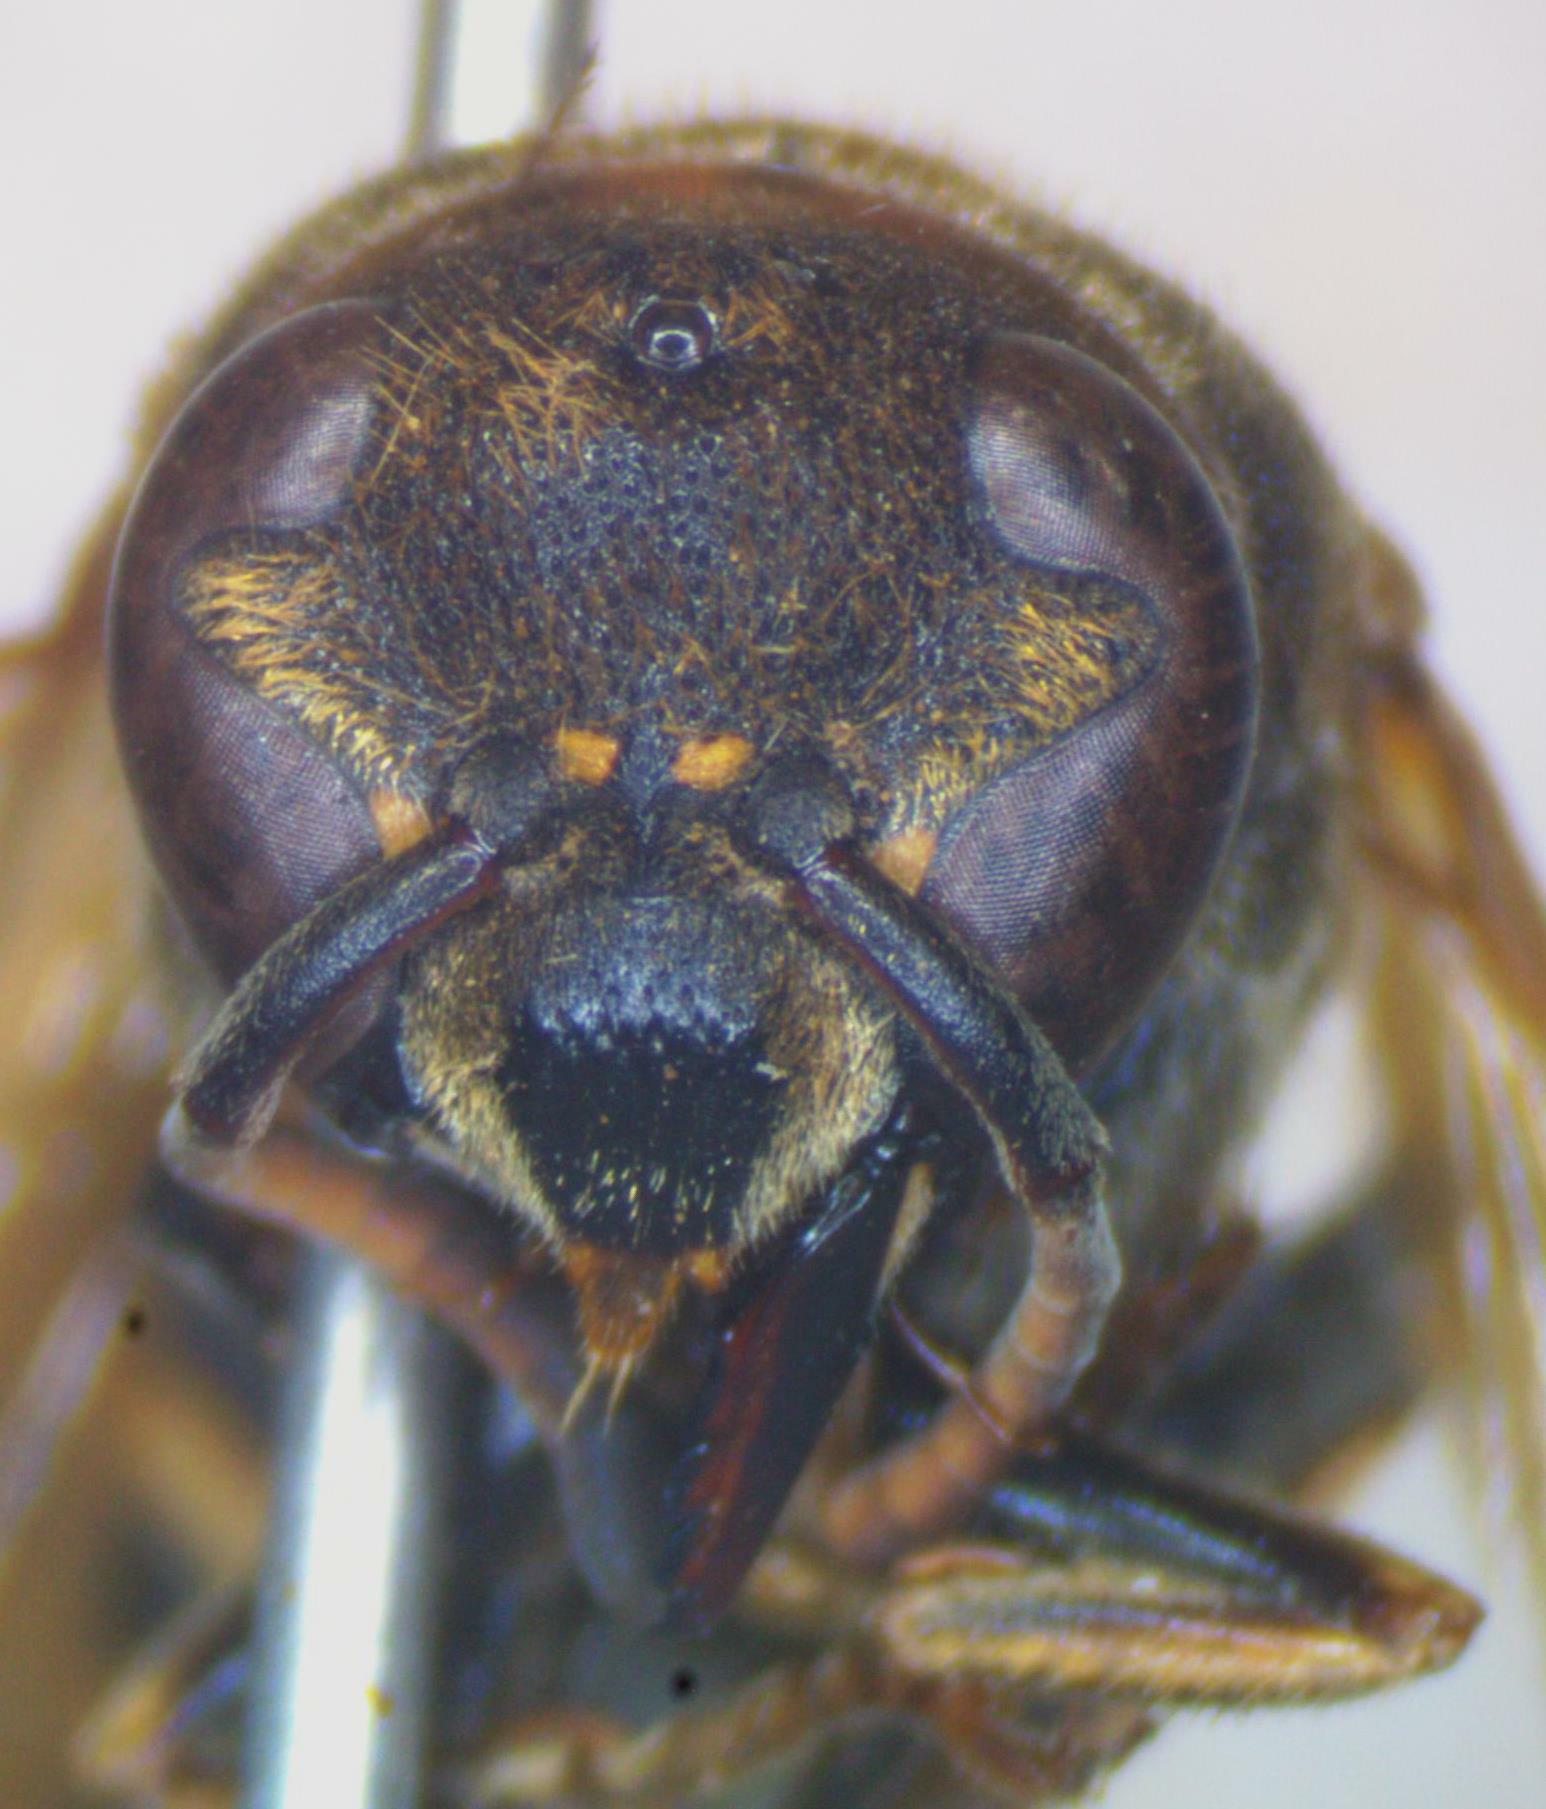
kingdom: Animalia
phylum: Arthropoda
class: Insecta
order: Hymenoptera
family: Eumenidae
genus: Pachodynerus
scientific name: Pachodynerus nasidens
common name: Key hole wasp
